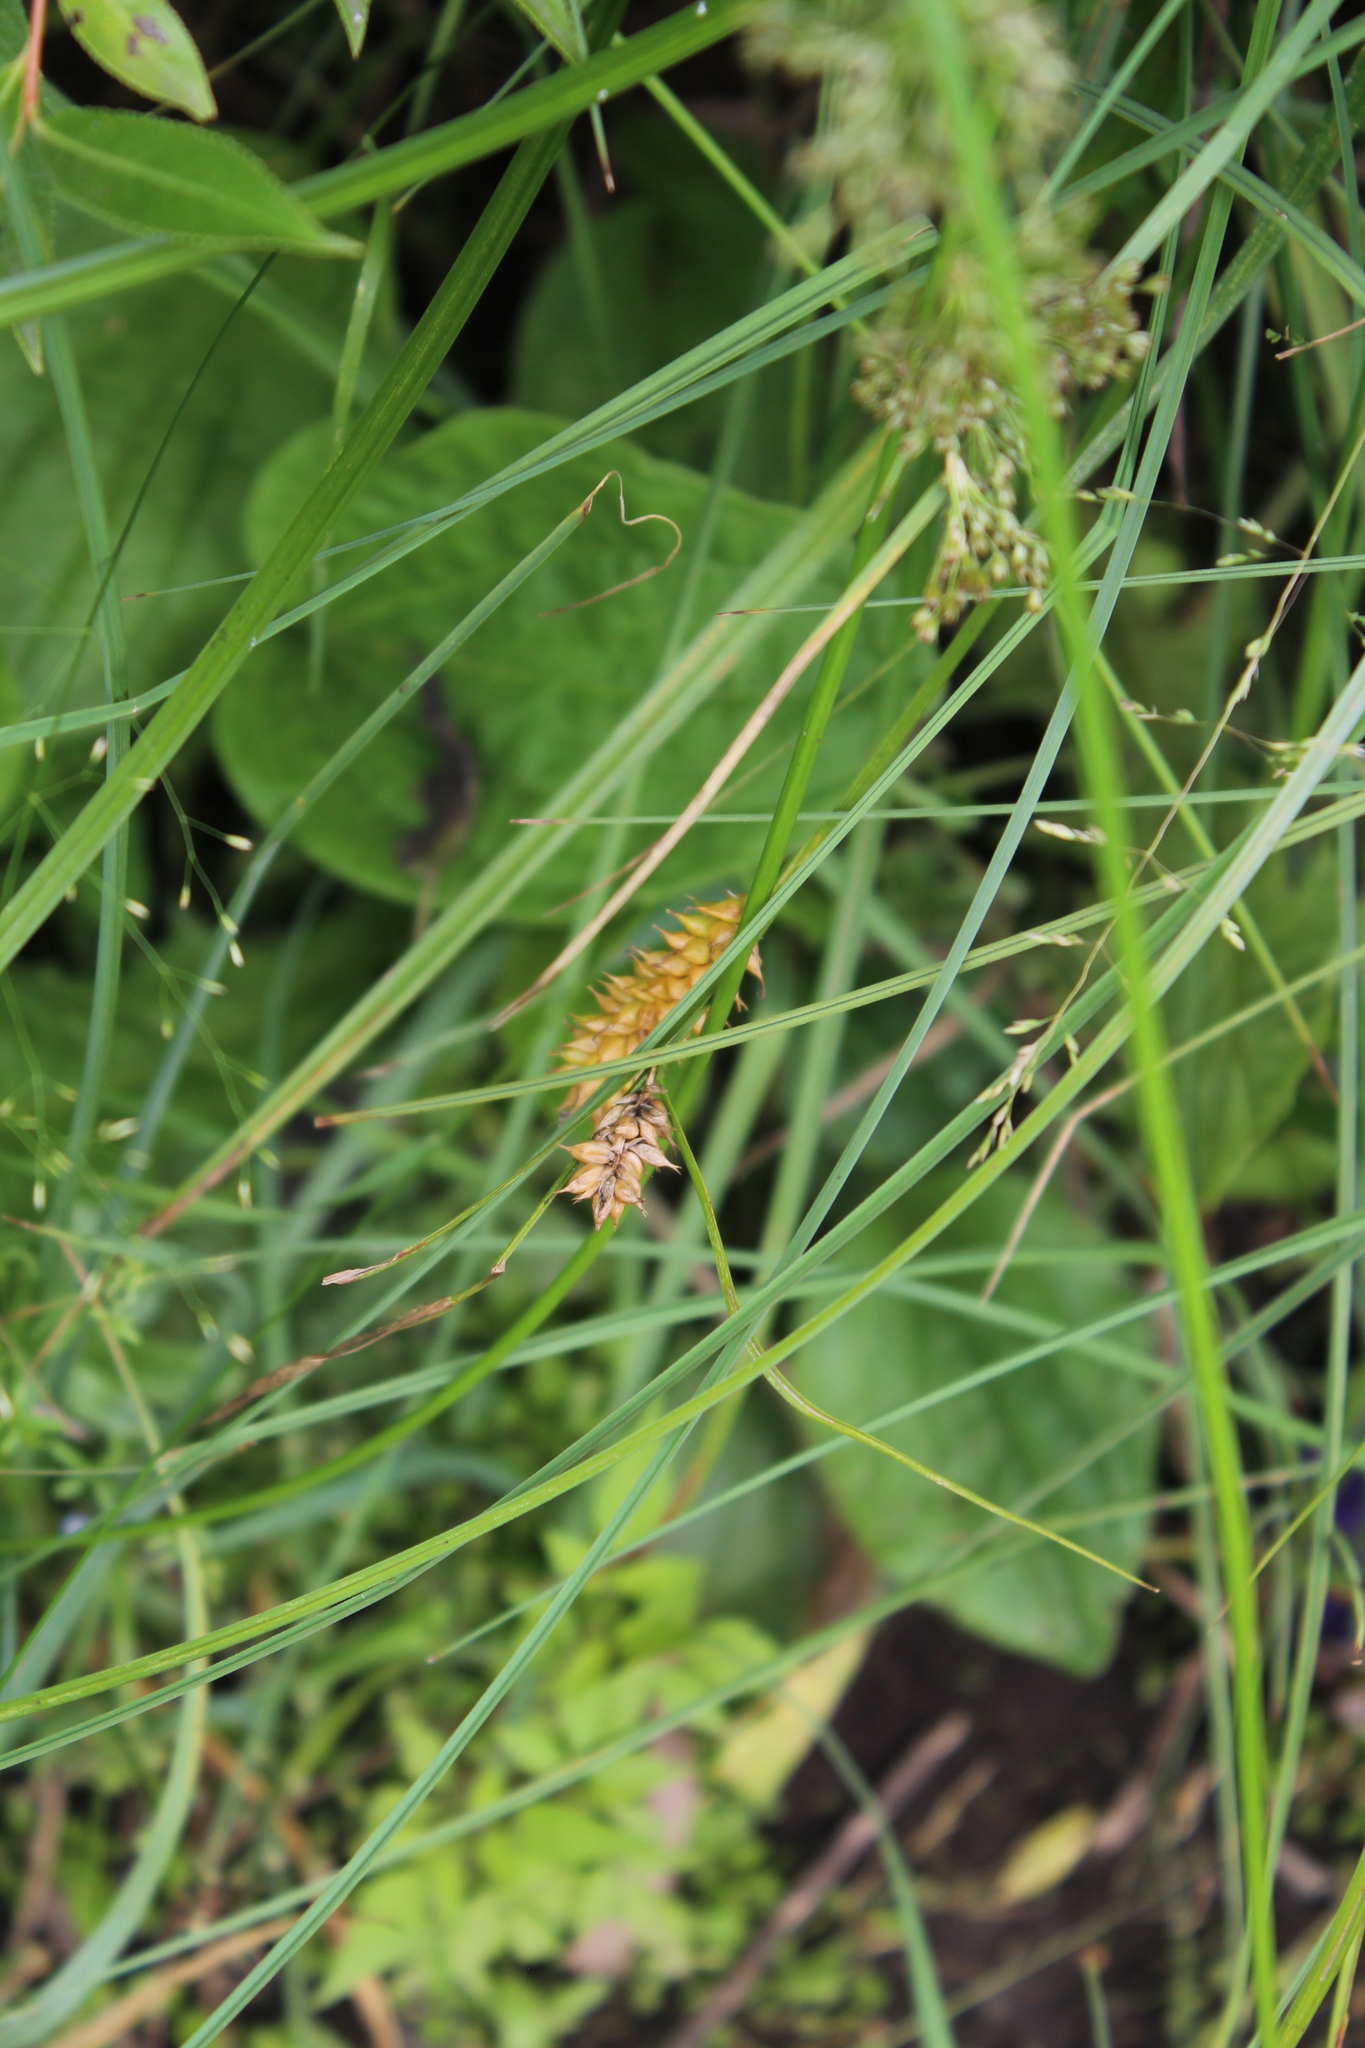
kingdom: Plantae
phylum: Tracheophyta
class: Liliopsida
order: Poales
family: Cyperaceae
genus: Carex
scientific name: Carex vesicaria
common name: Bladder-sedge
